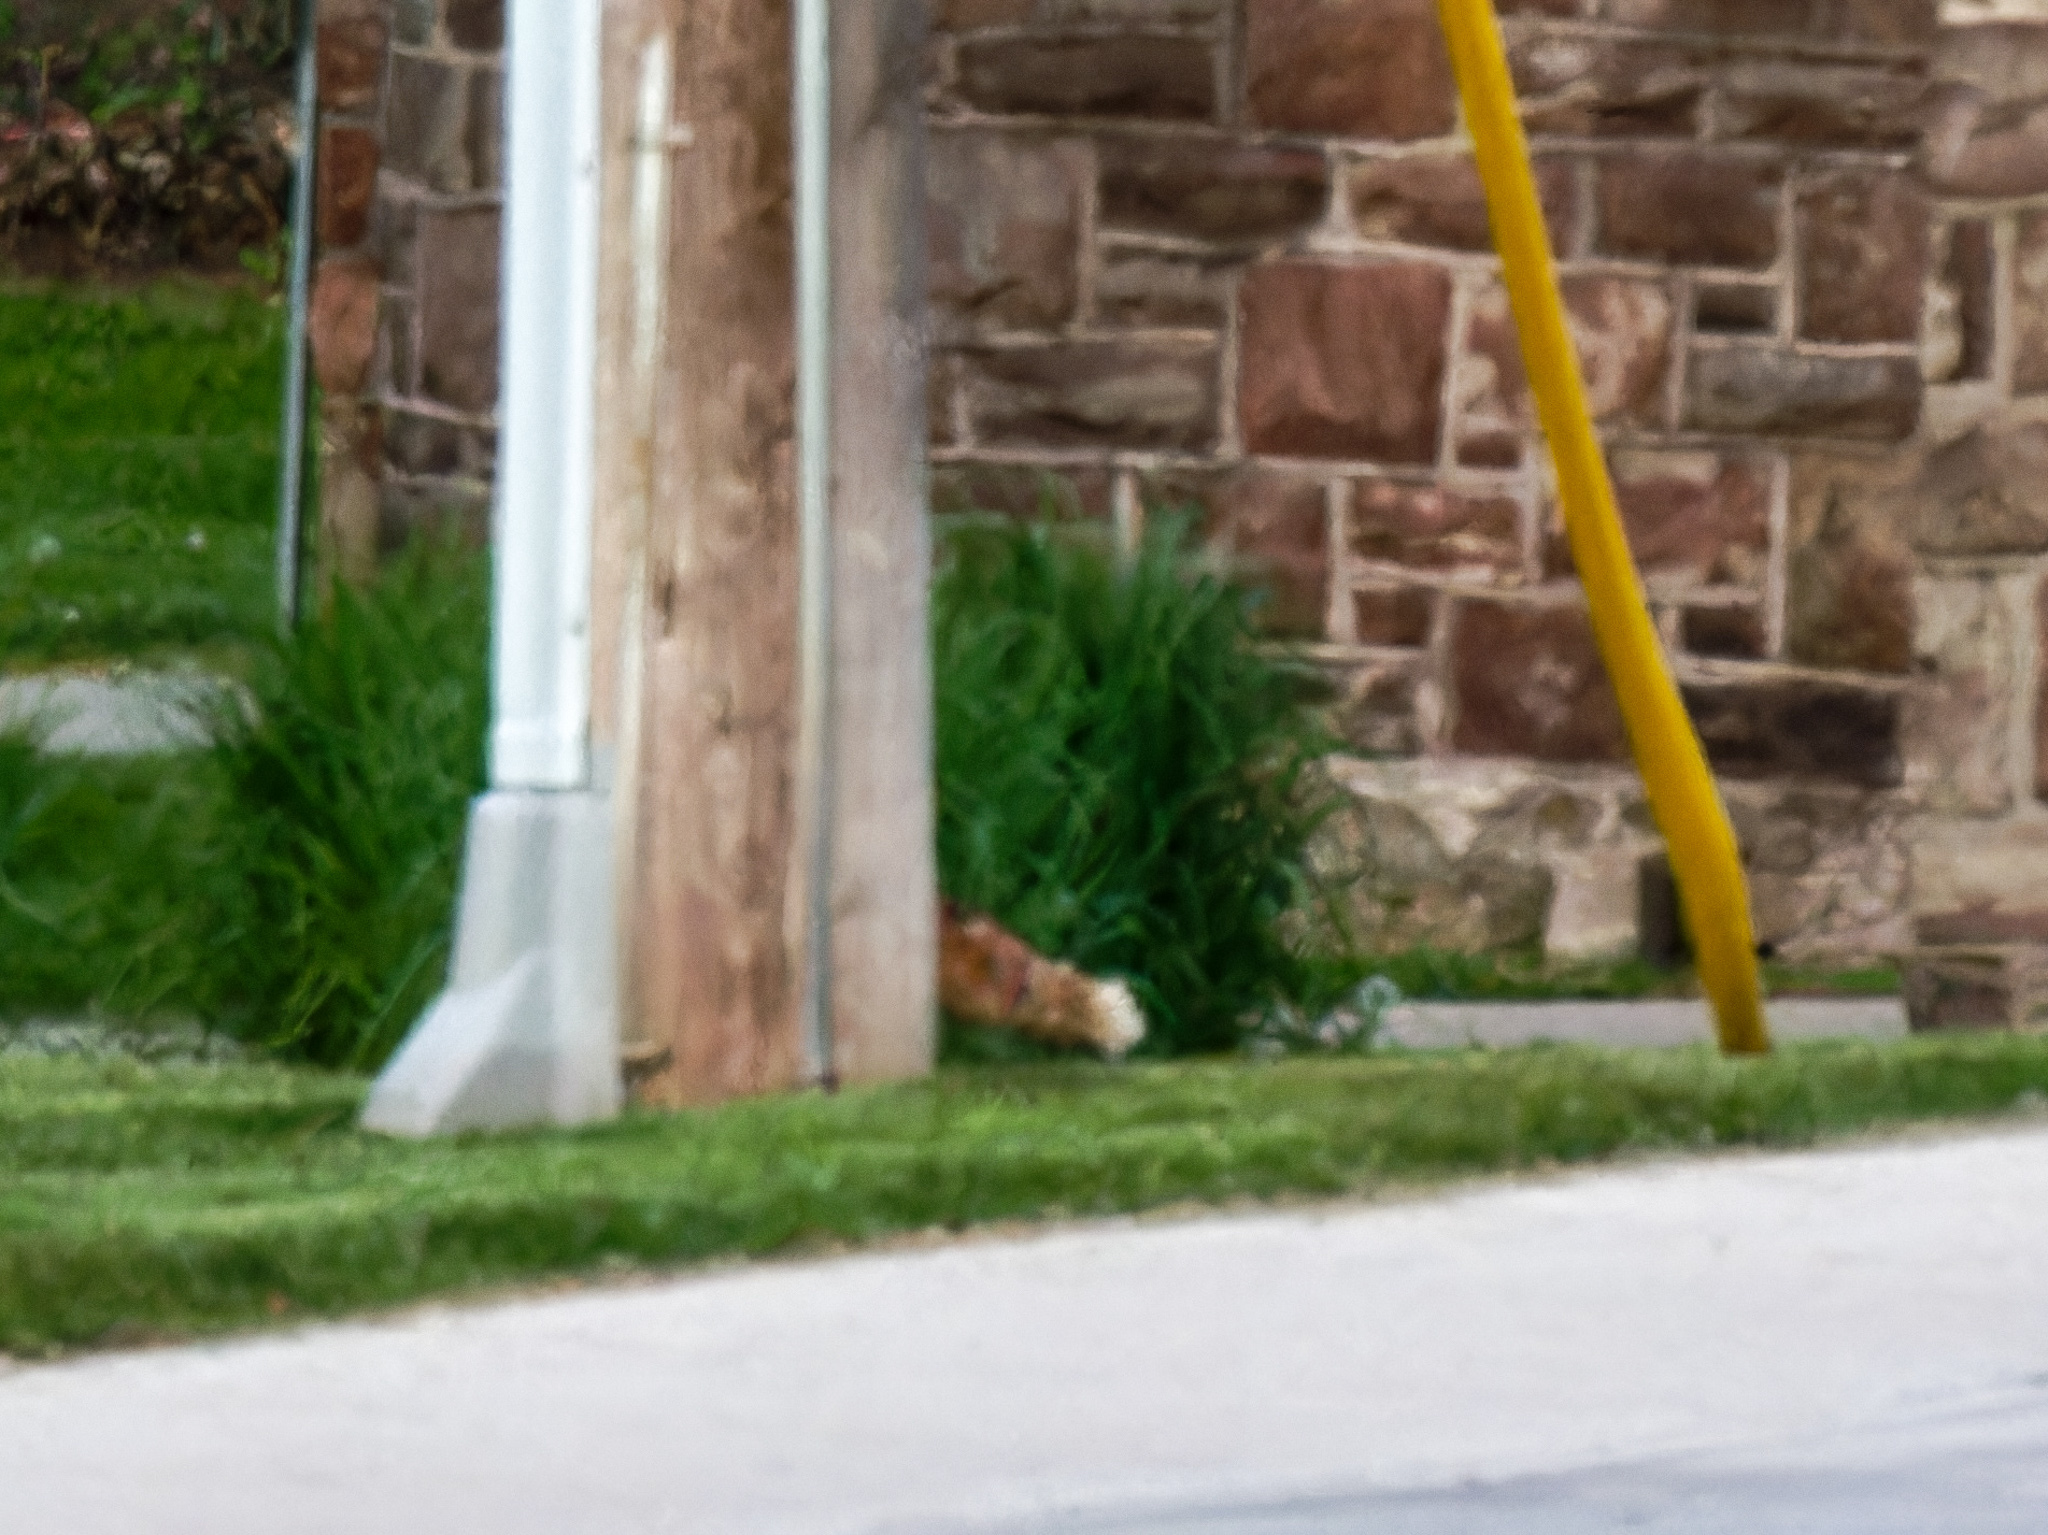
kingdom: Animalia
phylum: Chordata
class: Mammalia
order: Carnivora
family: Canidae
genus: Vulpes
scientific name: Vulpes vulpes
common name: Red fox
